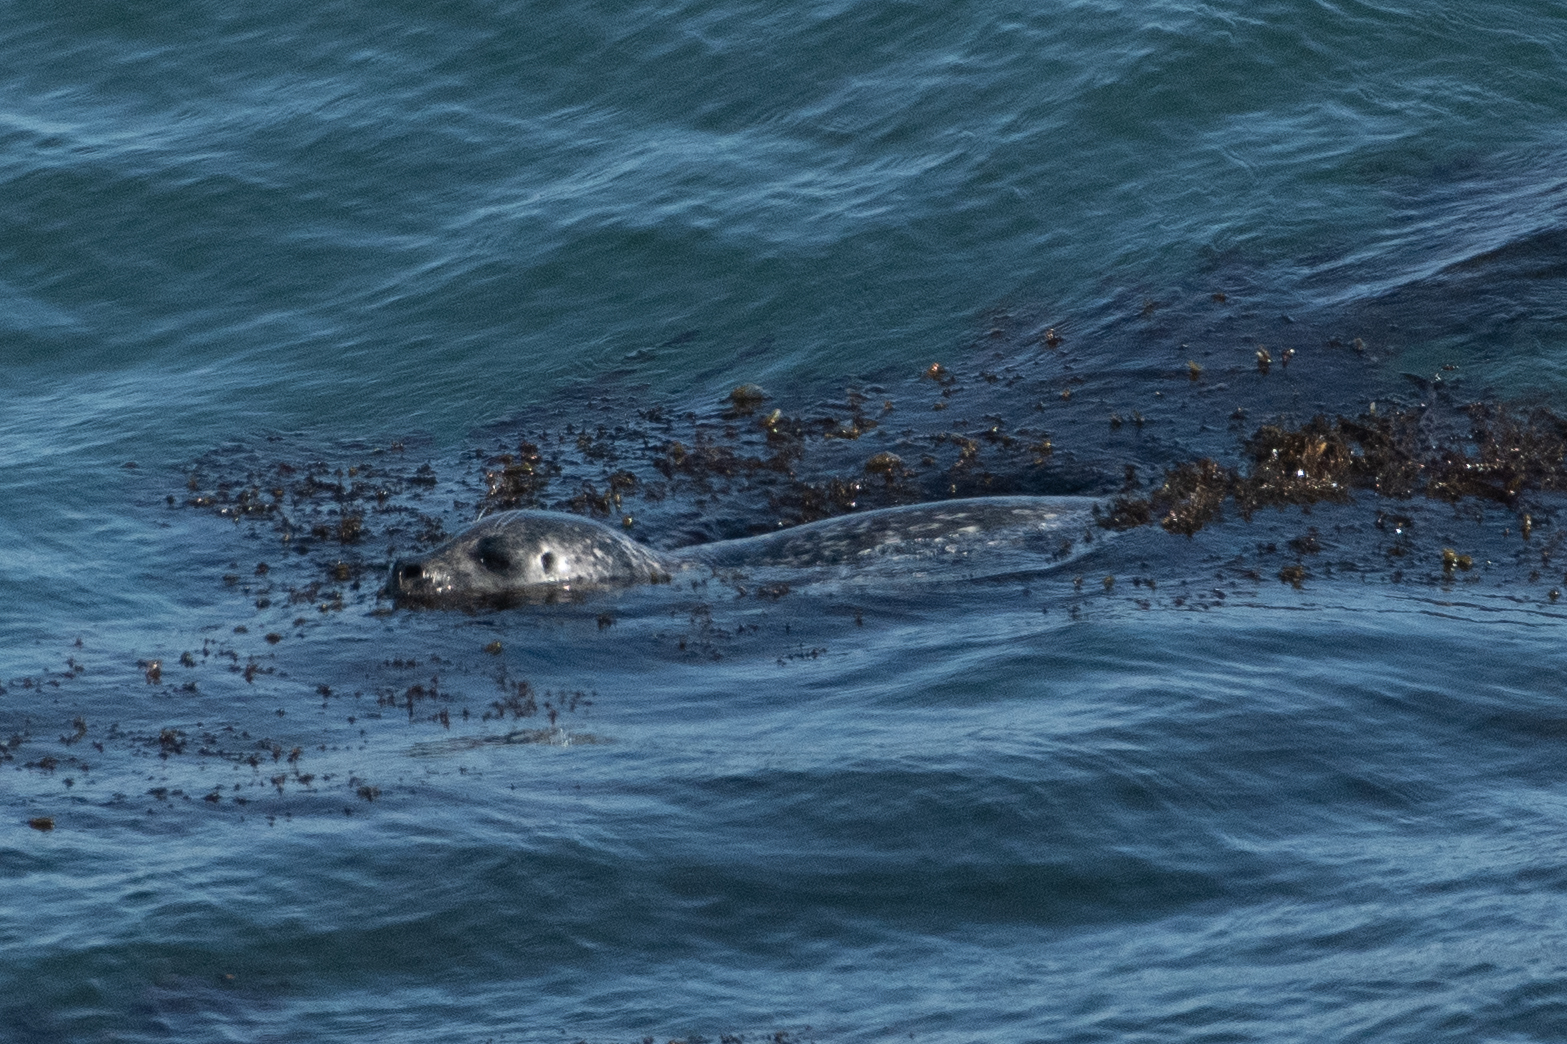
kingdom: Animalia
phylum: Chordata
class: Mammalia
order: Carnivora
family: Phocidae
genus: Phoca
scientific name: Phoca vitulina
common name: Harbor seal
